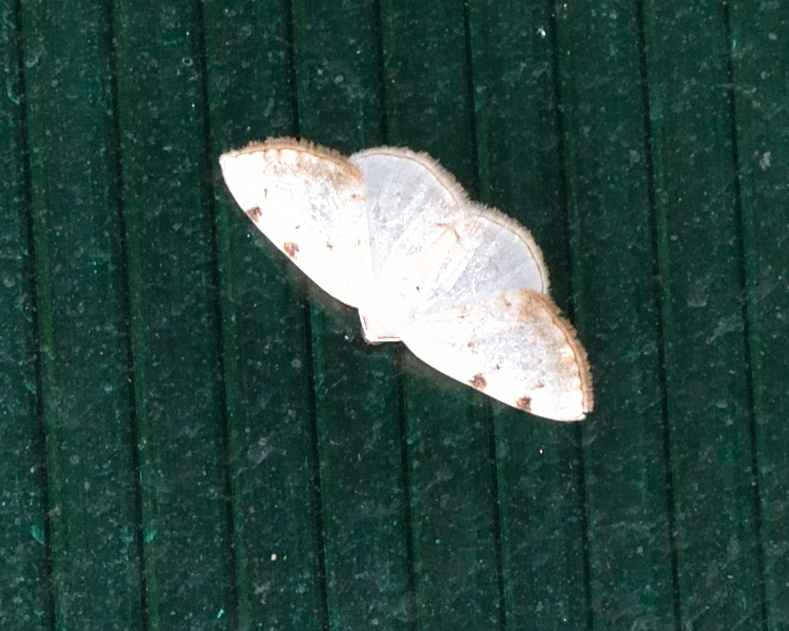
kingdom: Animalia
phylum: Arthropoda
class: Insecta
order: Lepidoptera
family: Geometridae
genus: Lomographa
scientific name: Lomographa bimaculata
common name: White-pinion spotted
